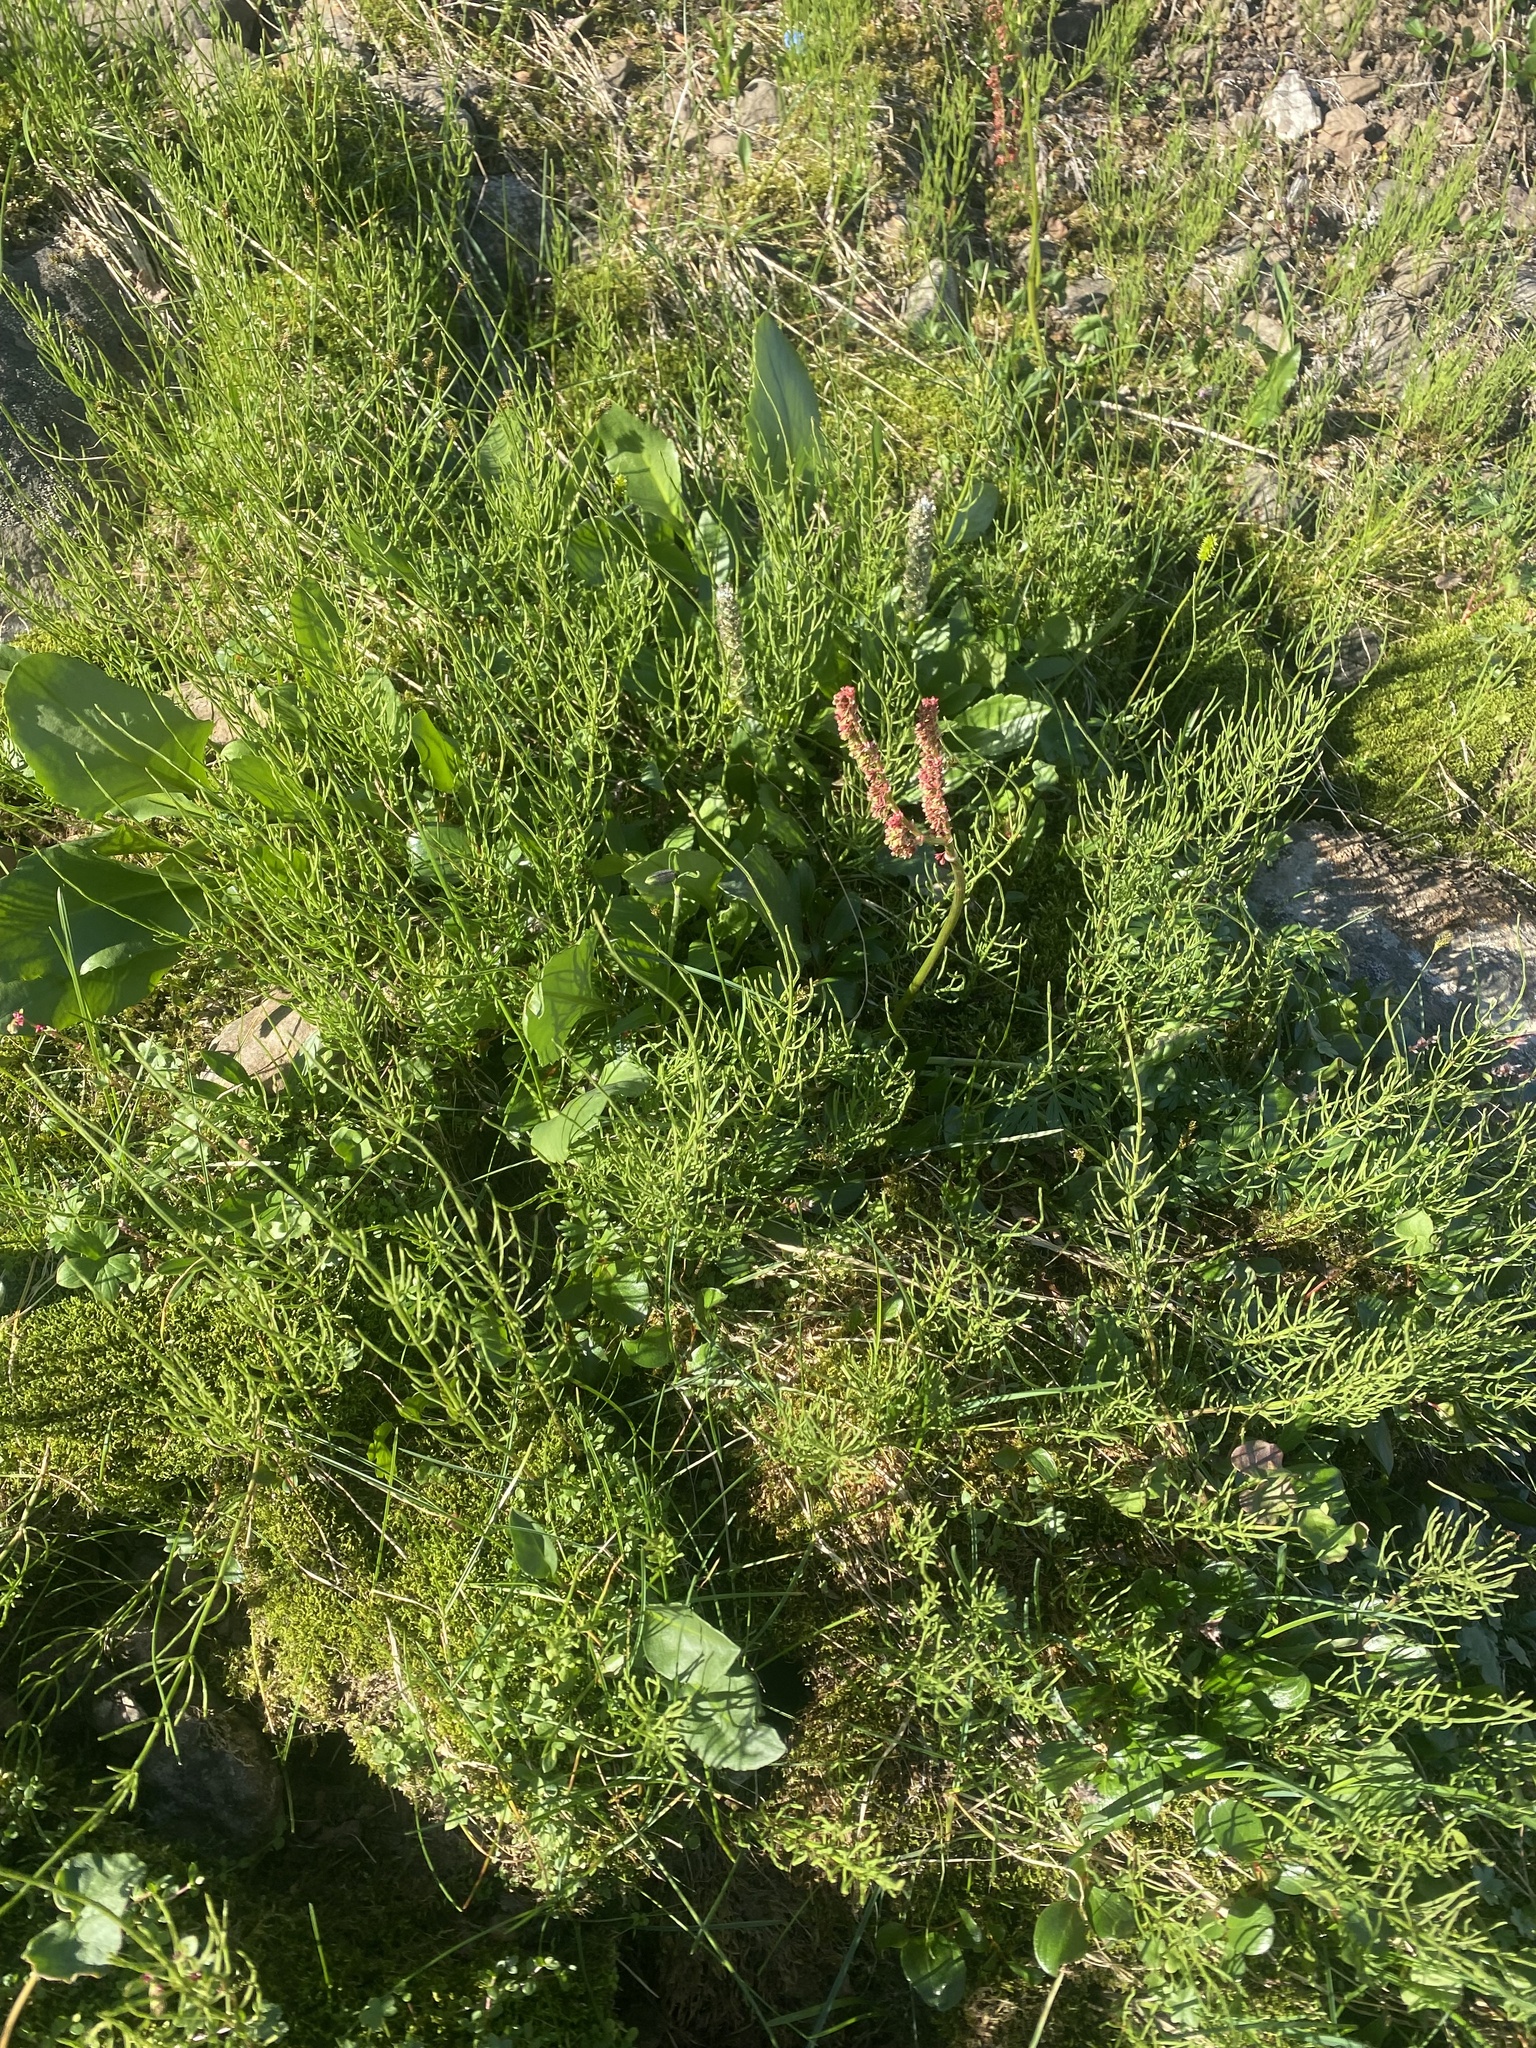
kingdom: Plantae
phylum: Tracheophyta
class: Polypodiopsida
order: Equisetales
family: Equisetaceae
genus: Equisetum
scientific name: Equisetum arvense
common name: Field horsetail
